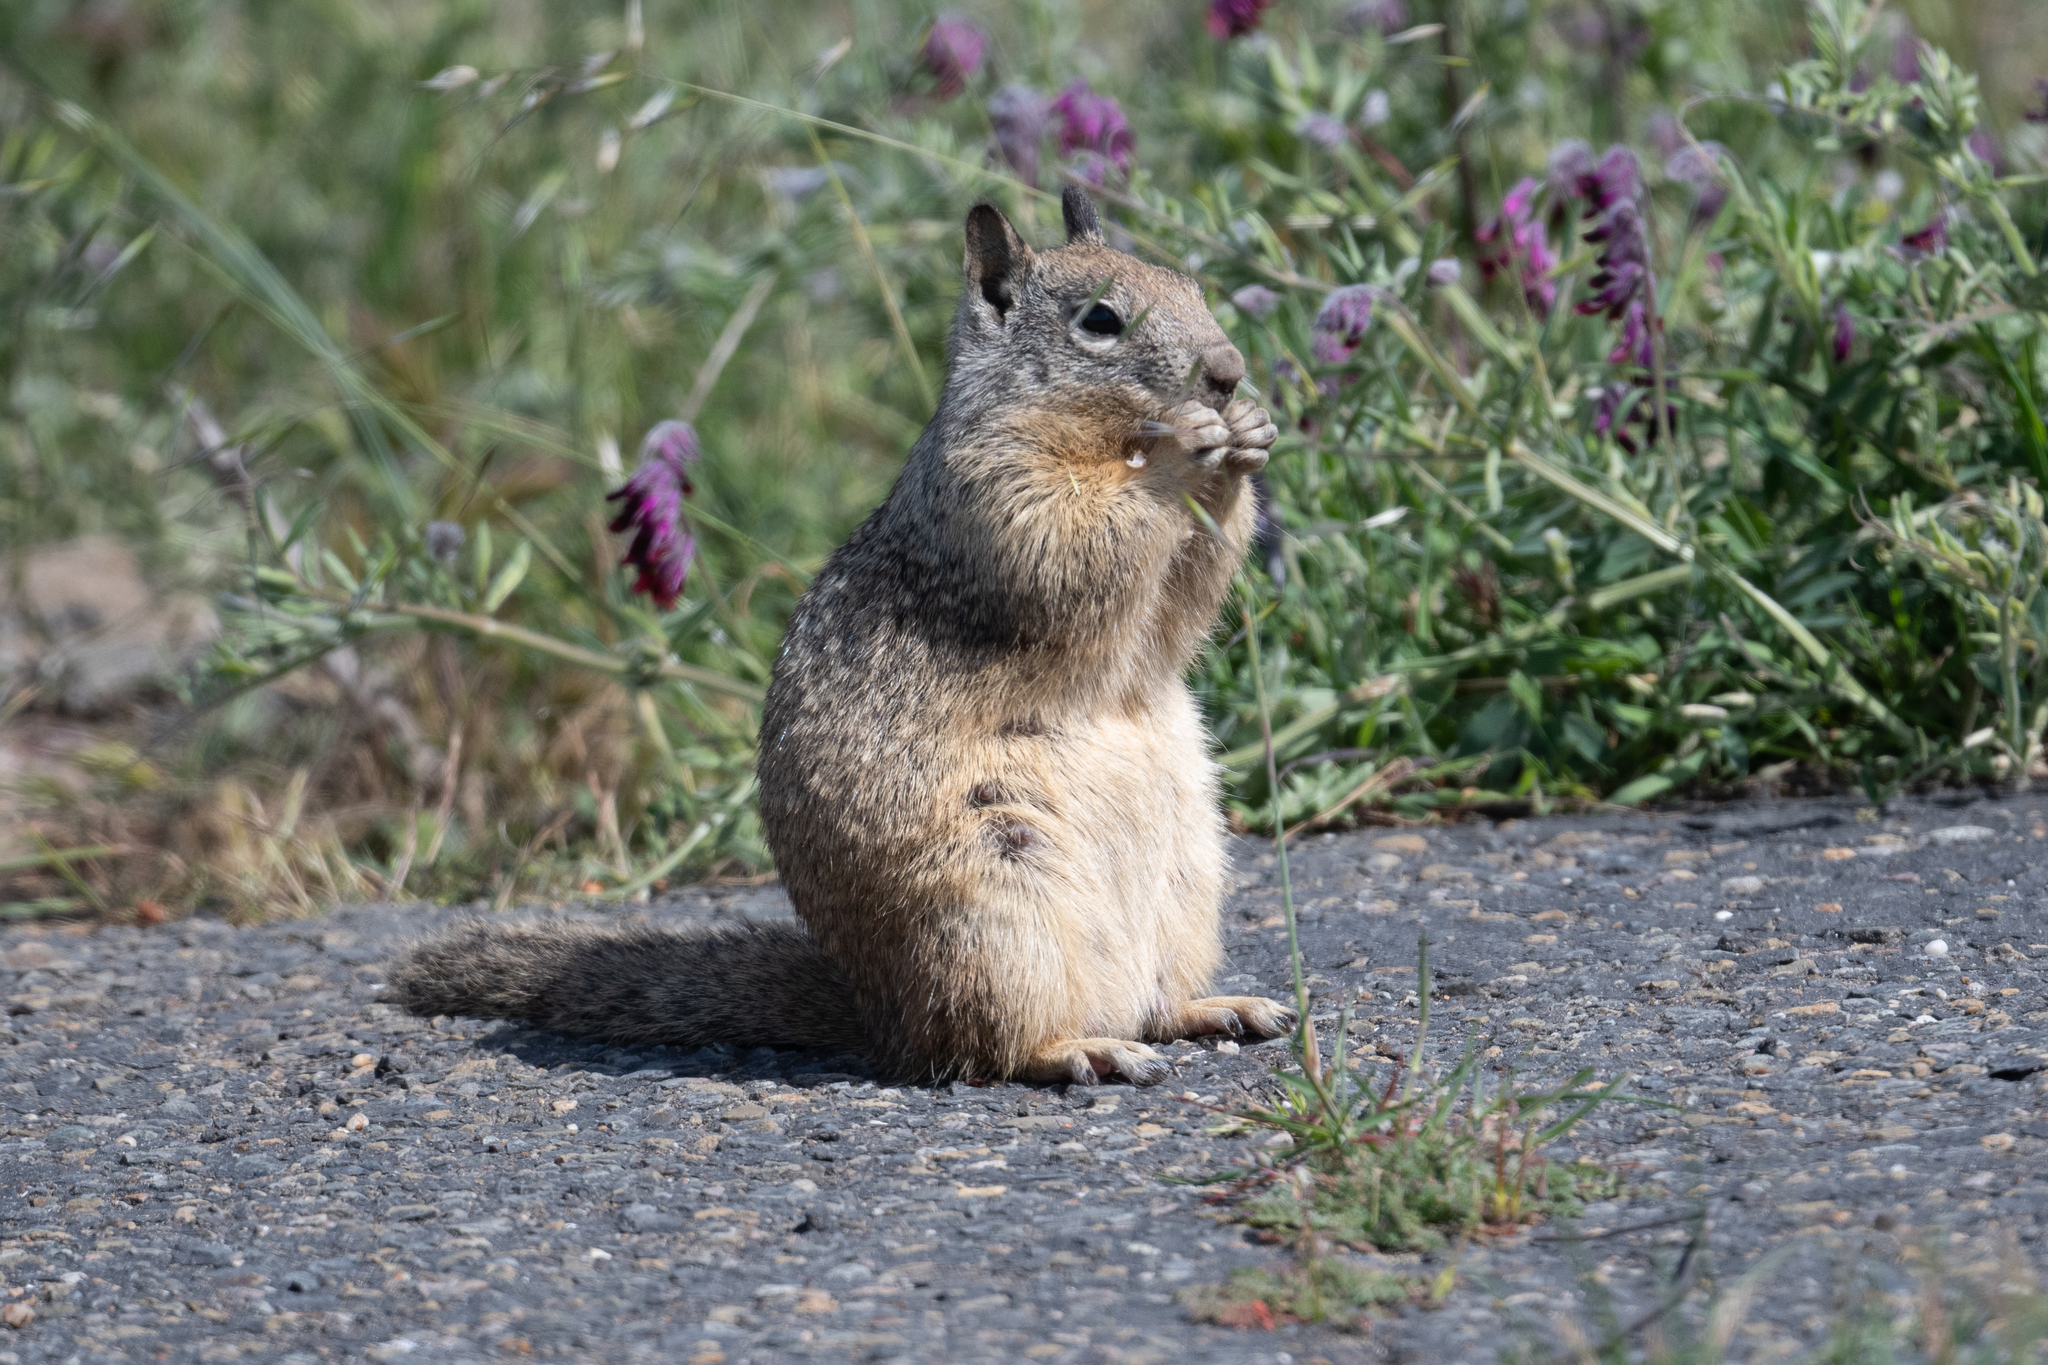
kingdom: Animalia
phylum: Chordata
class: Mammalia
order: Rodentia
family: Sciuridae
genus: Otospermophilus
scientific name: Otospermophilus beecheyi
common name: California ground squirrel
